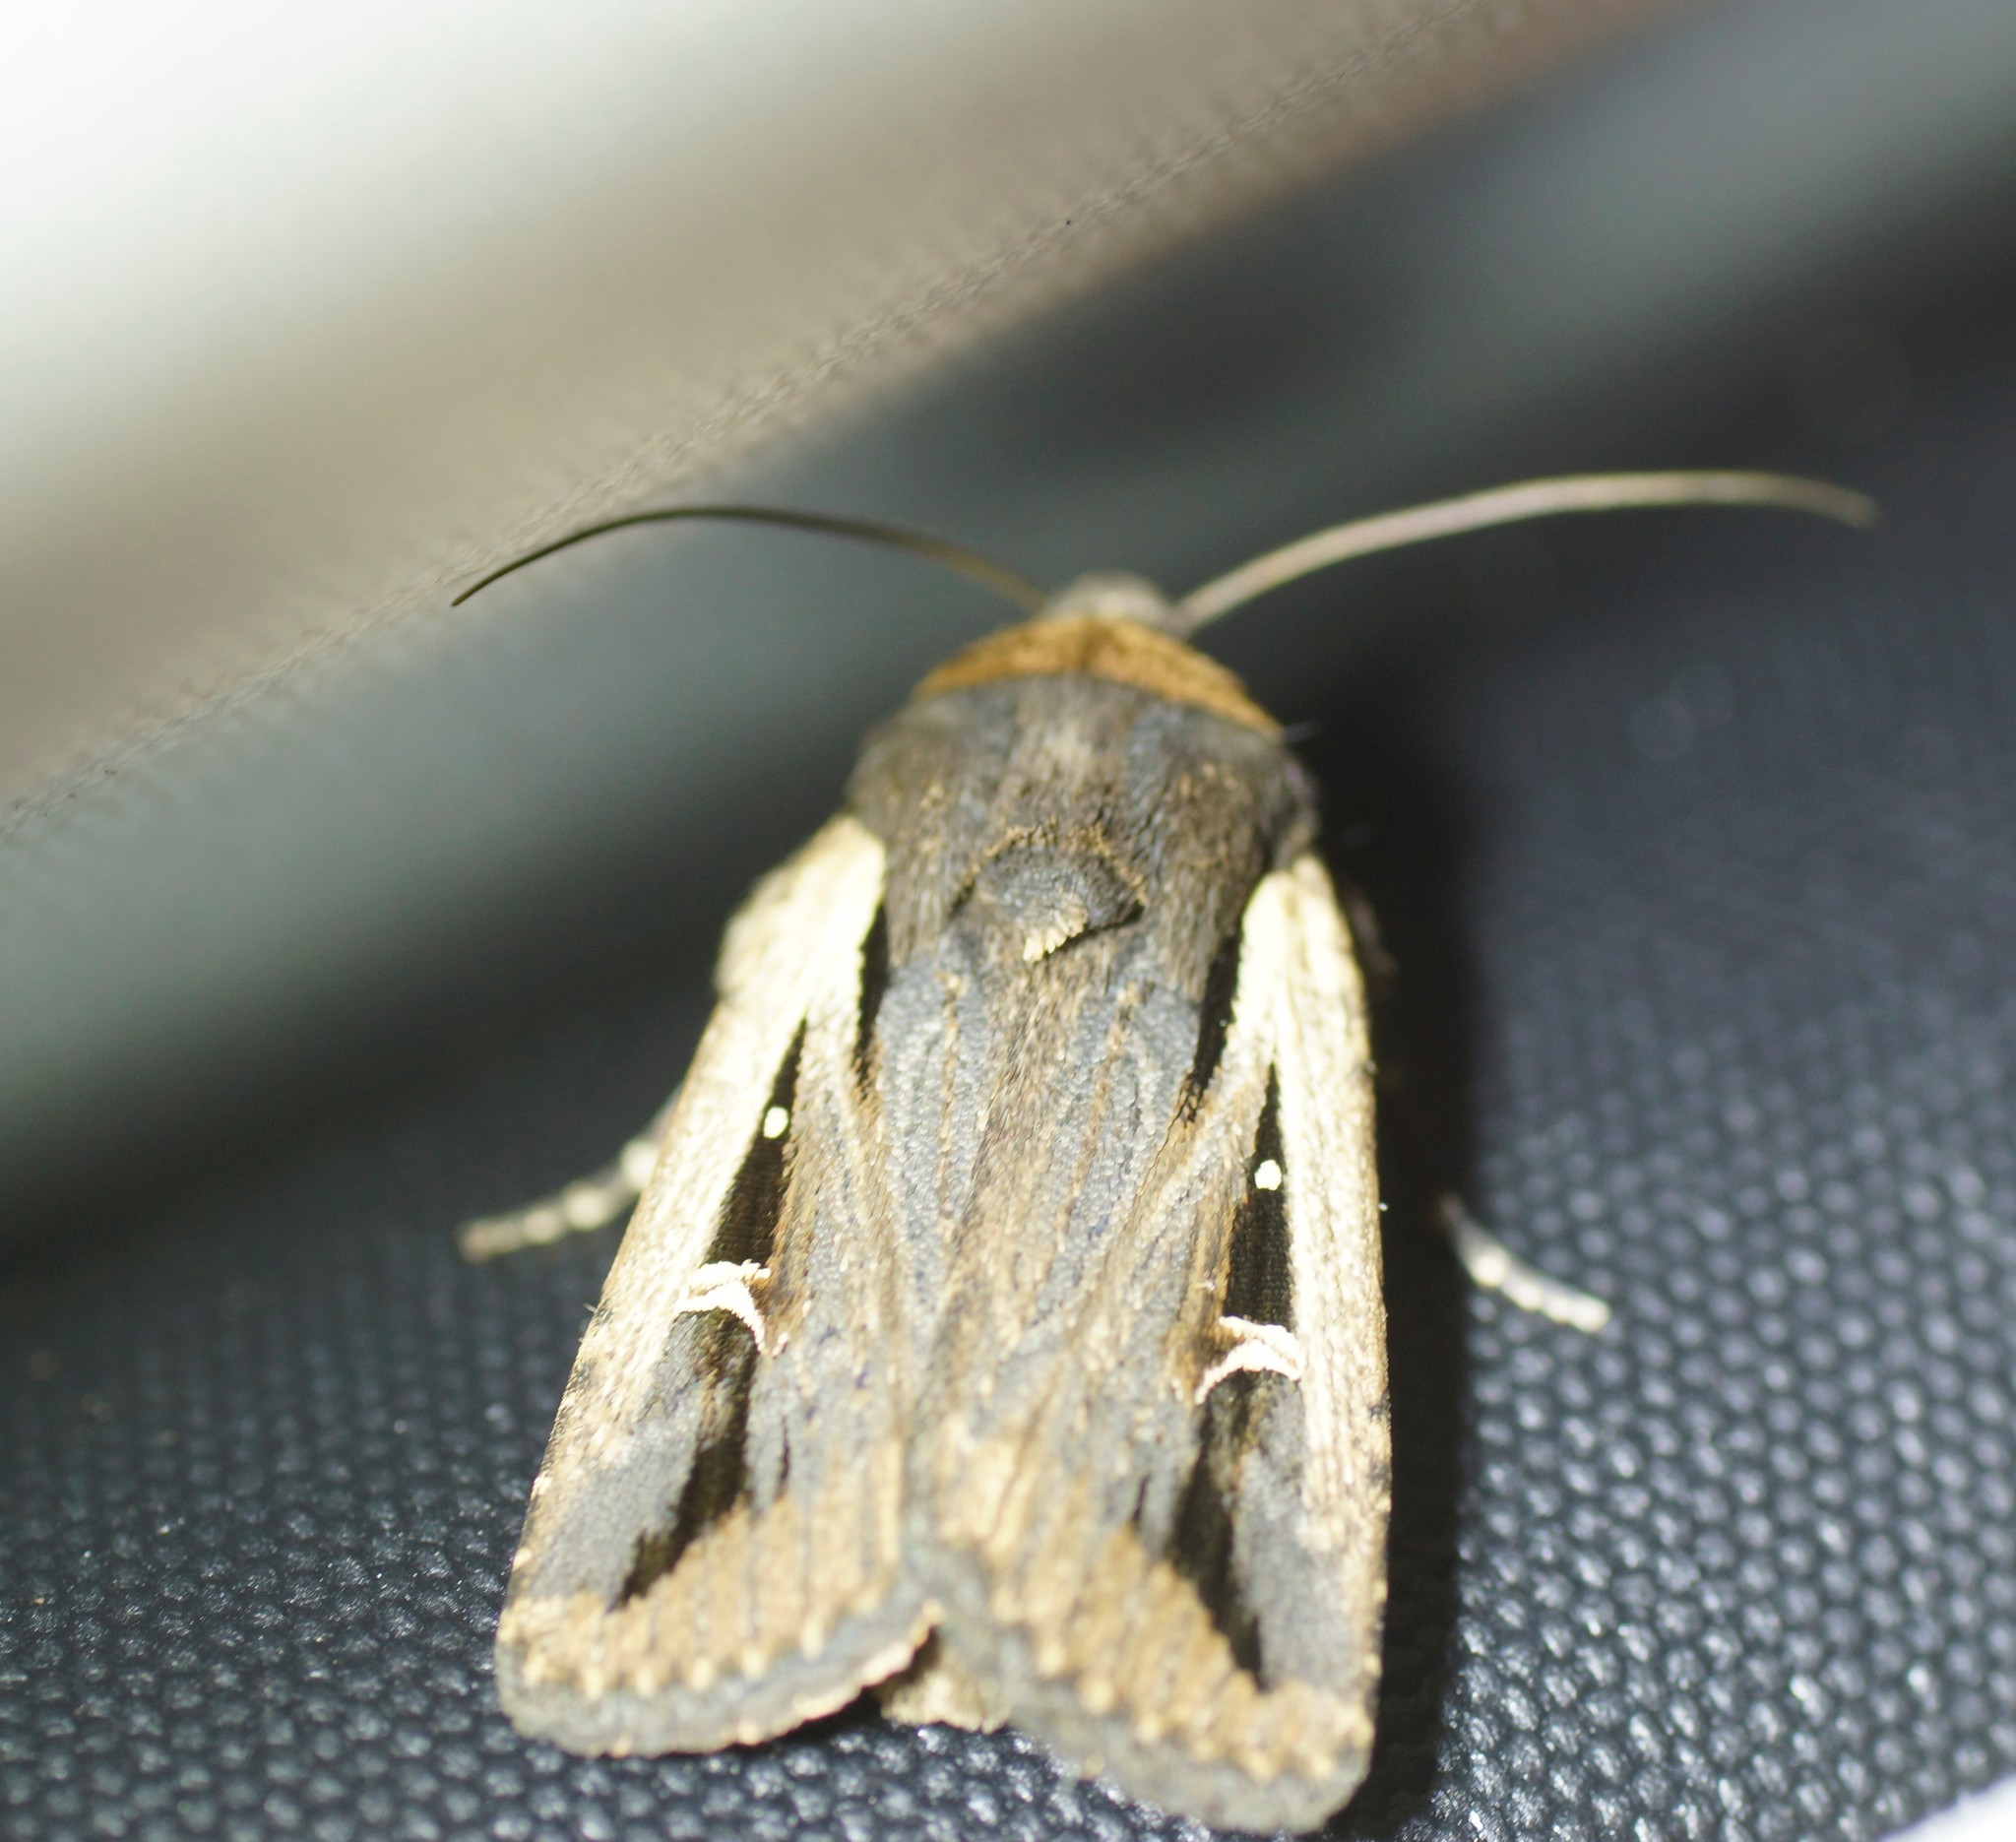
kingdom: Animalia
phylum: Arthropoda
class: Insecta
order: Lepidoptera
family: Noctuidae
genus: Proteuxoa
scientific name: Proteuxoa tortisigna
